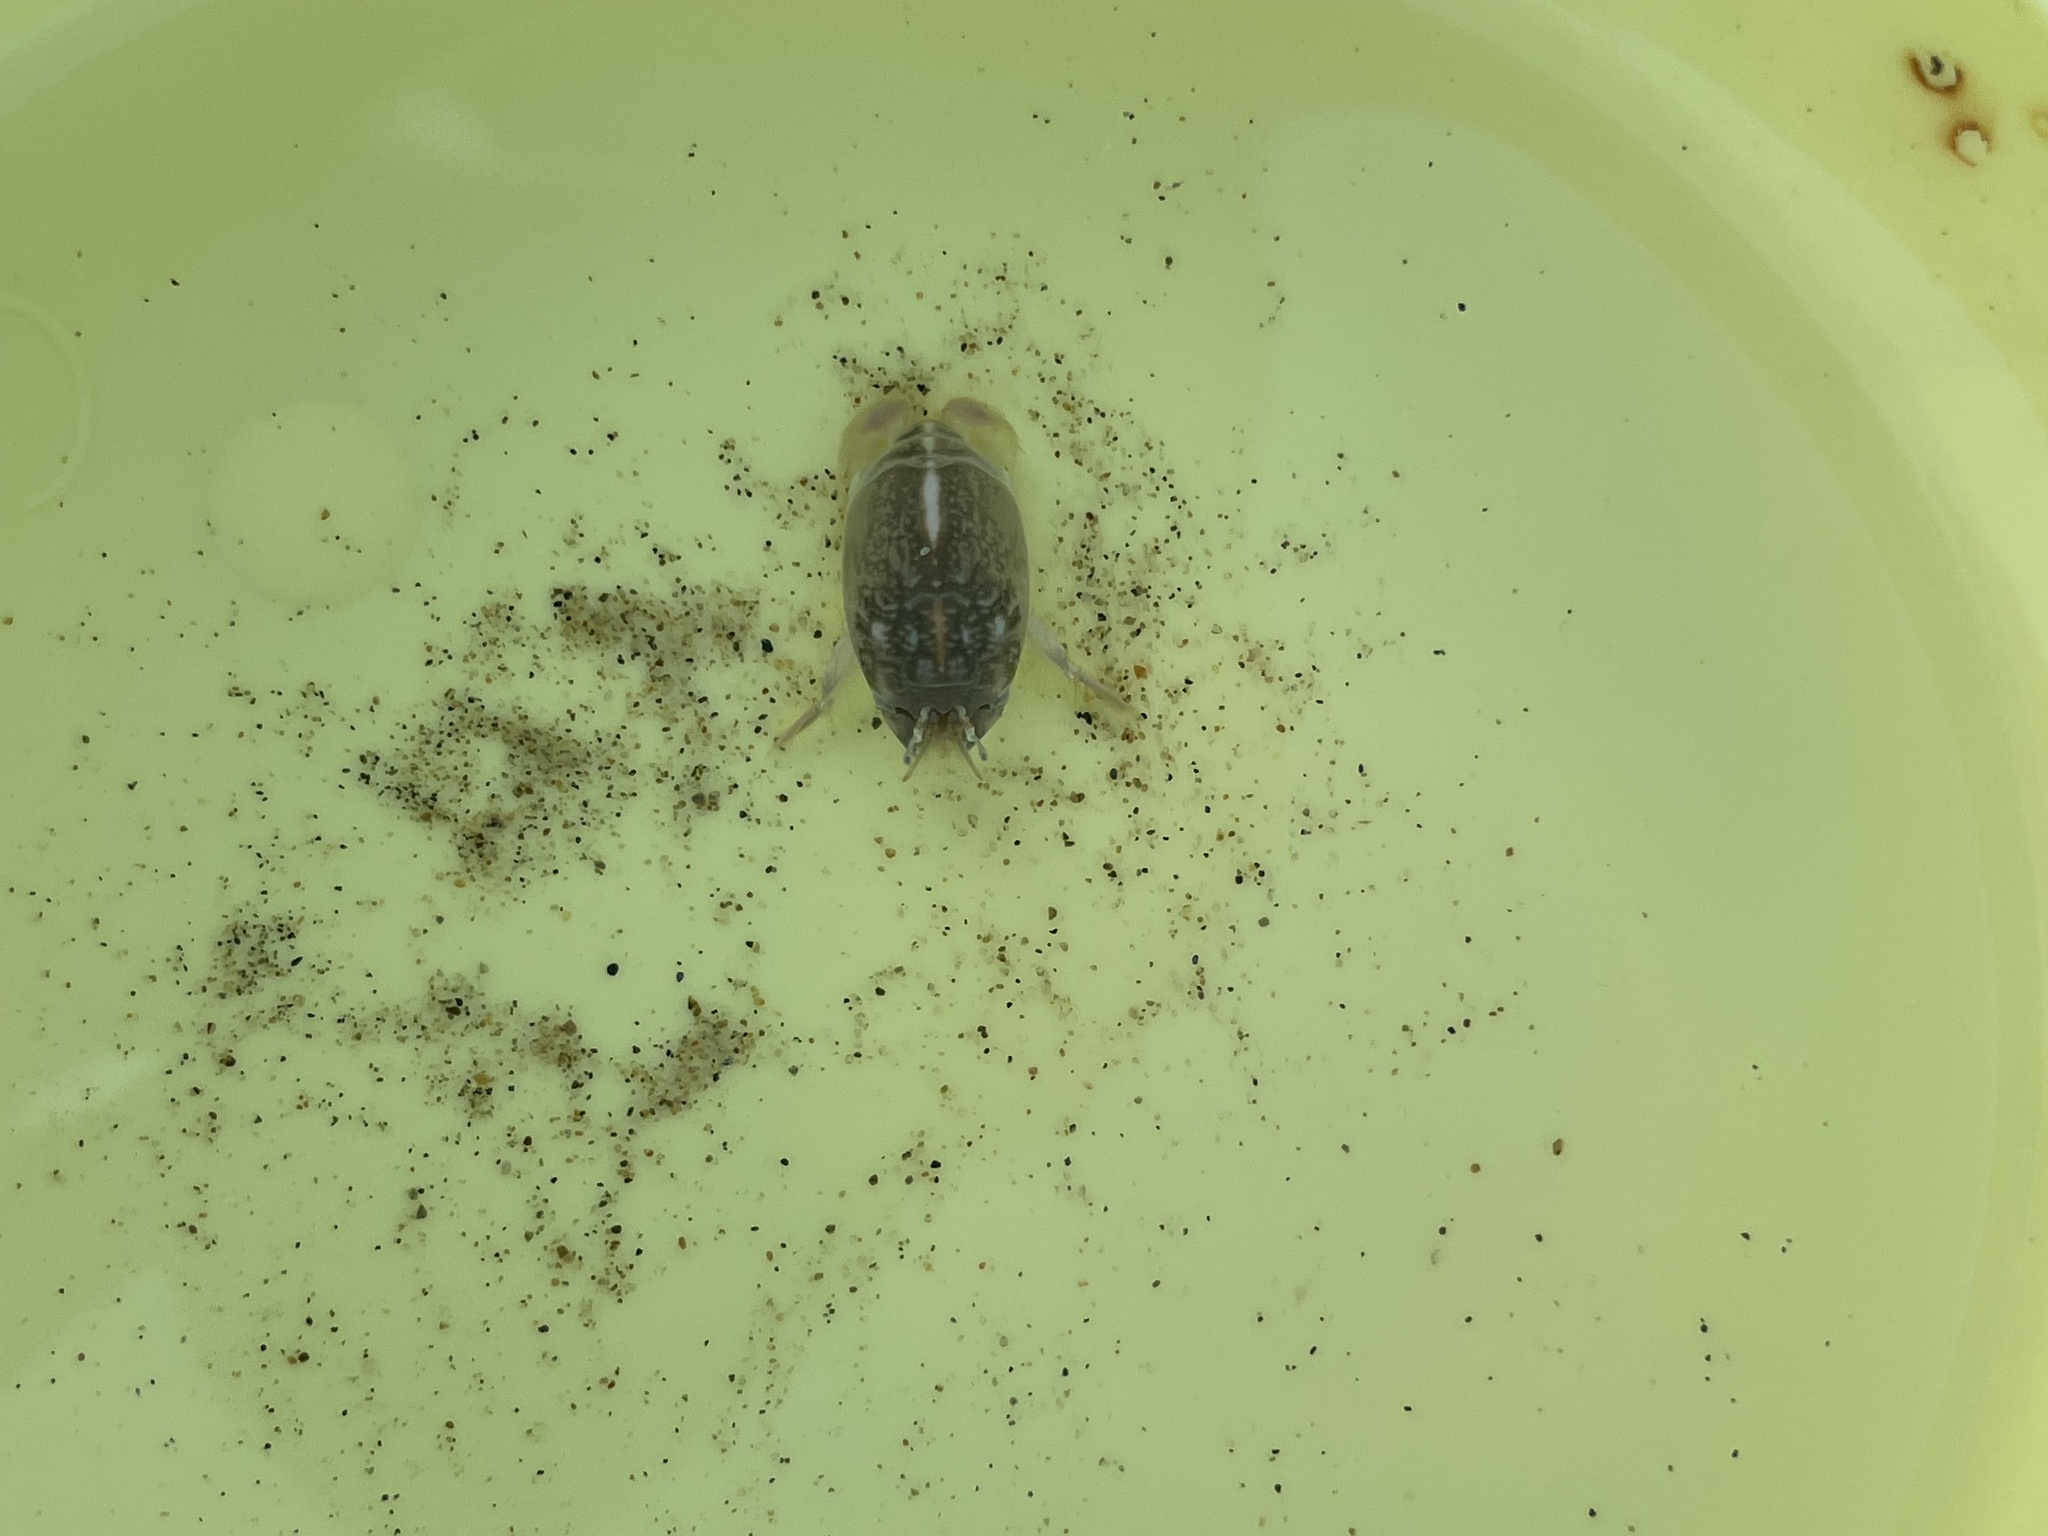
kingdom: Animalia
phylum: Arthropoda
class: Malacostraca
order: Decapoda
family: Hippidae
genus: Emerita
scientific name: Emerita analoga
